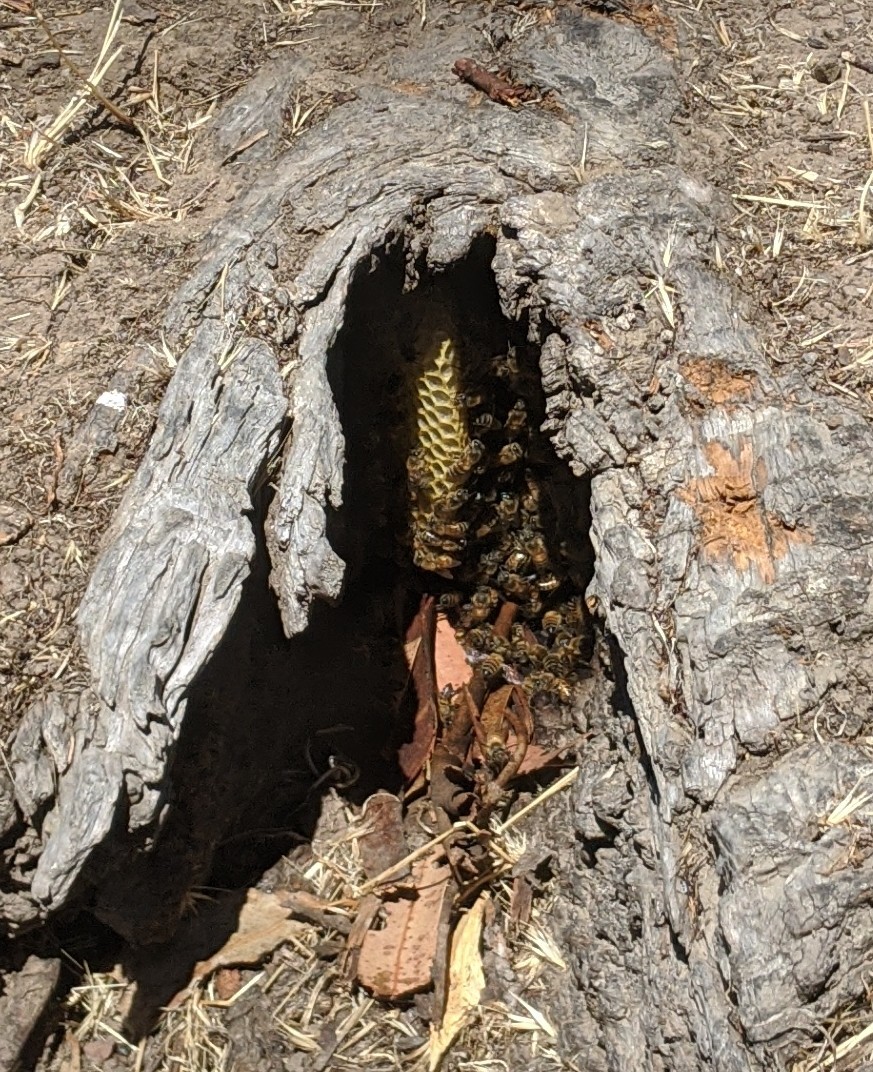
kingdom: Animalia
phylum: Arthropoda
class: Insecta
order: Hymenoptera
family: Apidae
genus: Apis
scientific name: Apis mellifera
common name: Honey bee
